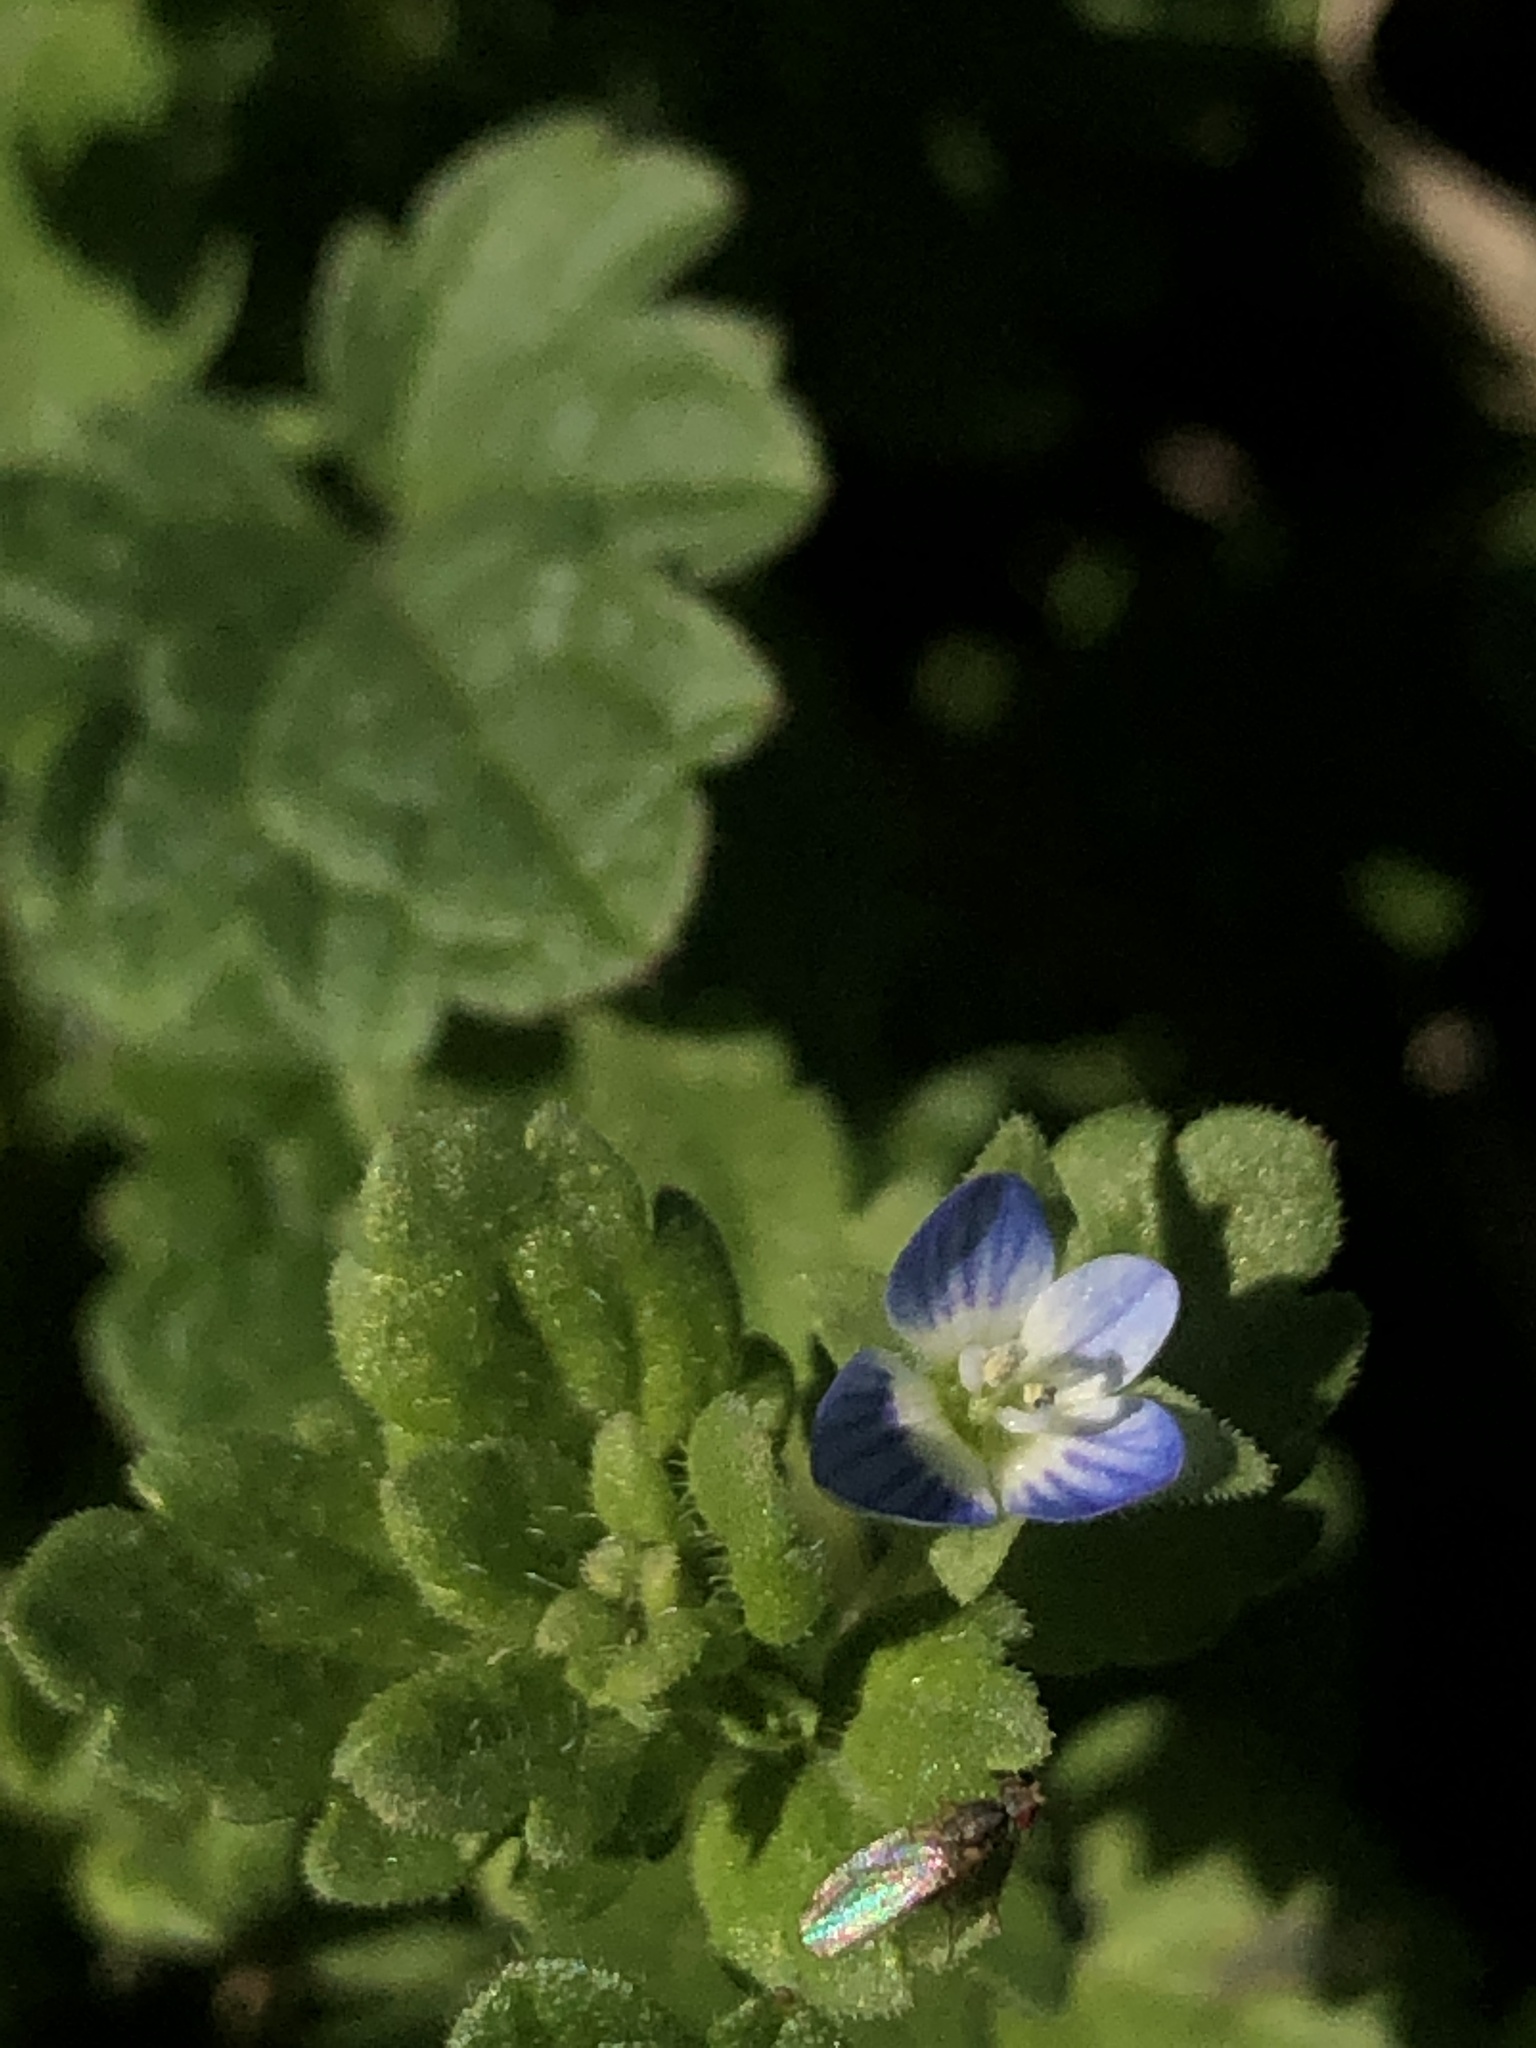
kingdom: Plantae
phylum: Tracheophyta
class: Magnoliopsida
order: Lamiales
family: Plantaginaceae
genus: Veronica
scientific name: Veronica polita
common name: Grey field-speedwell
